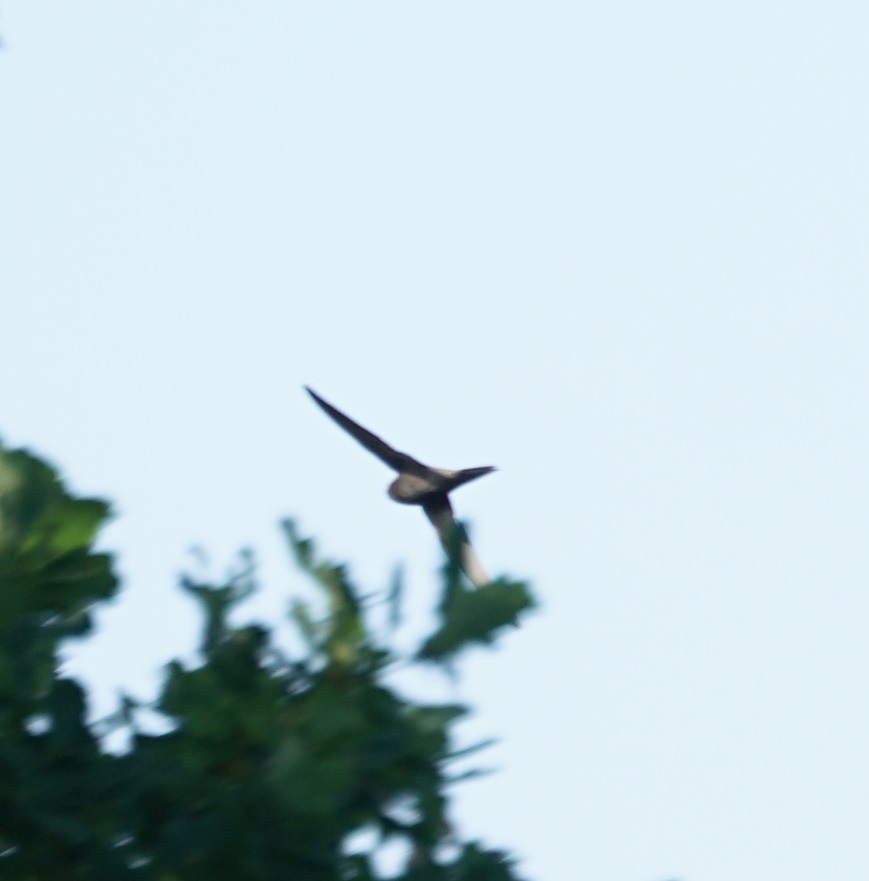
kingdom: Animalia
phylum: Chordata
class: Aves
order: Apodiformes
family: Apodidae
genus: Apus
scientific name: Apus apus
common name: Common swift
